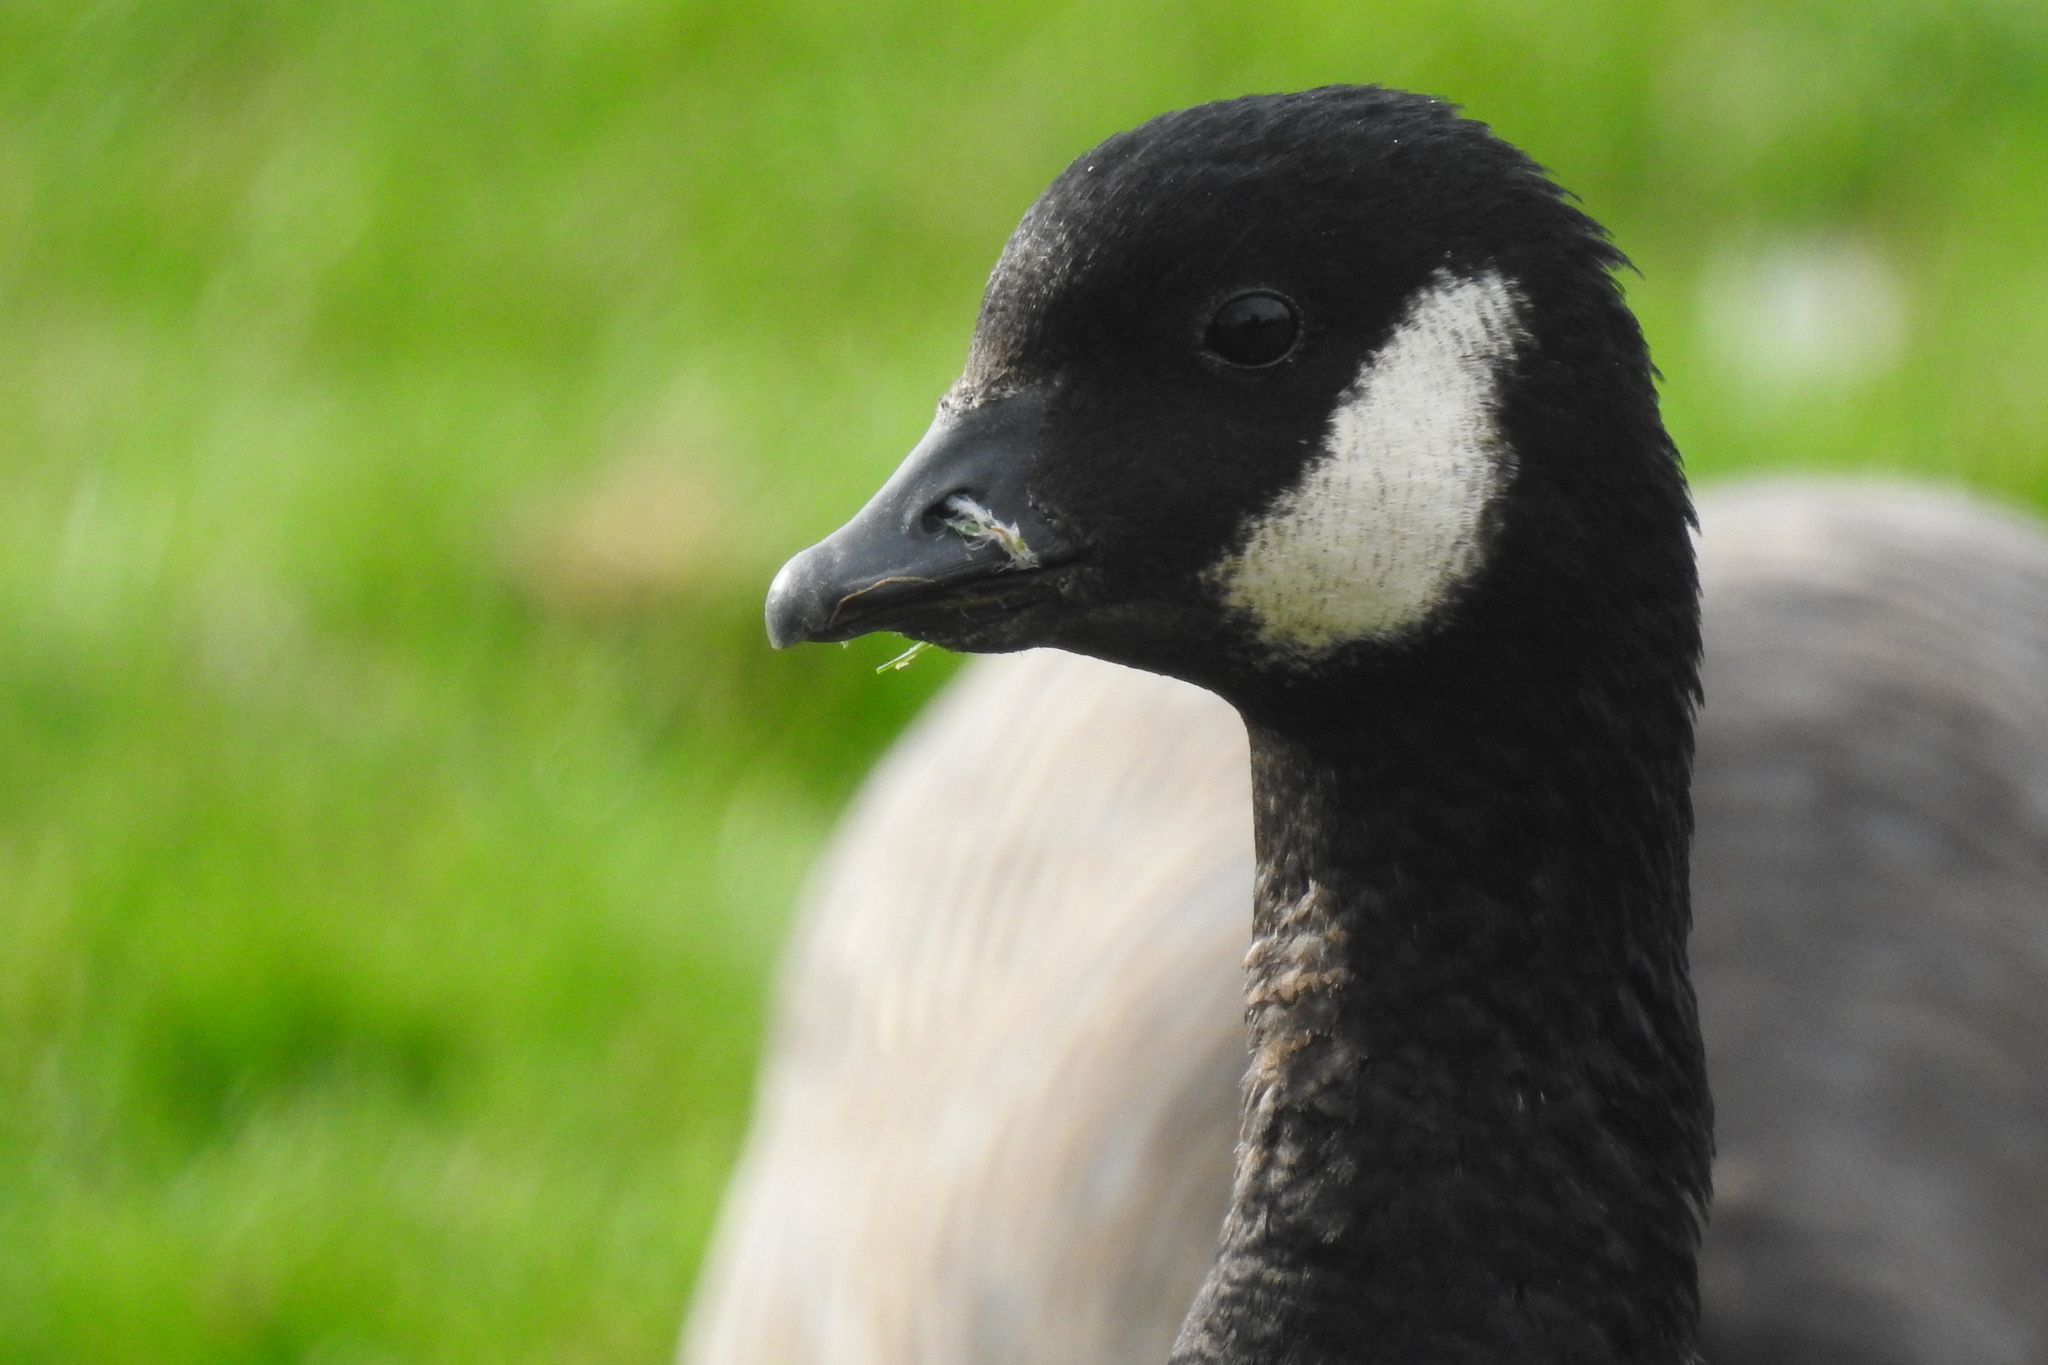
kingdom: Animalia
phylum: Chordata
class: Aves
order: Anseriformes
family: Anatidae
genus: Branta
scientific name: Branta hutchinsii
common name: Cackling goose
